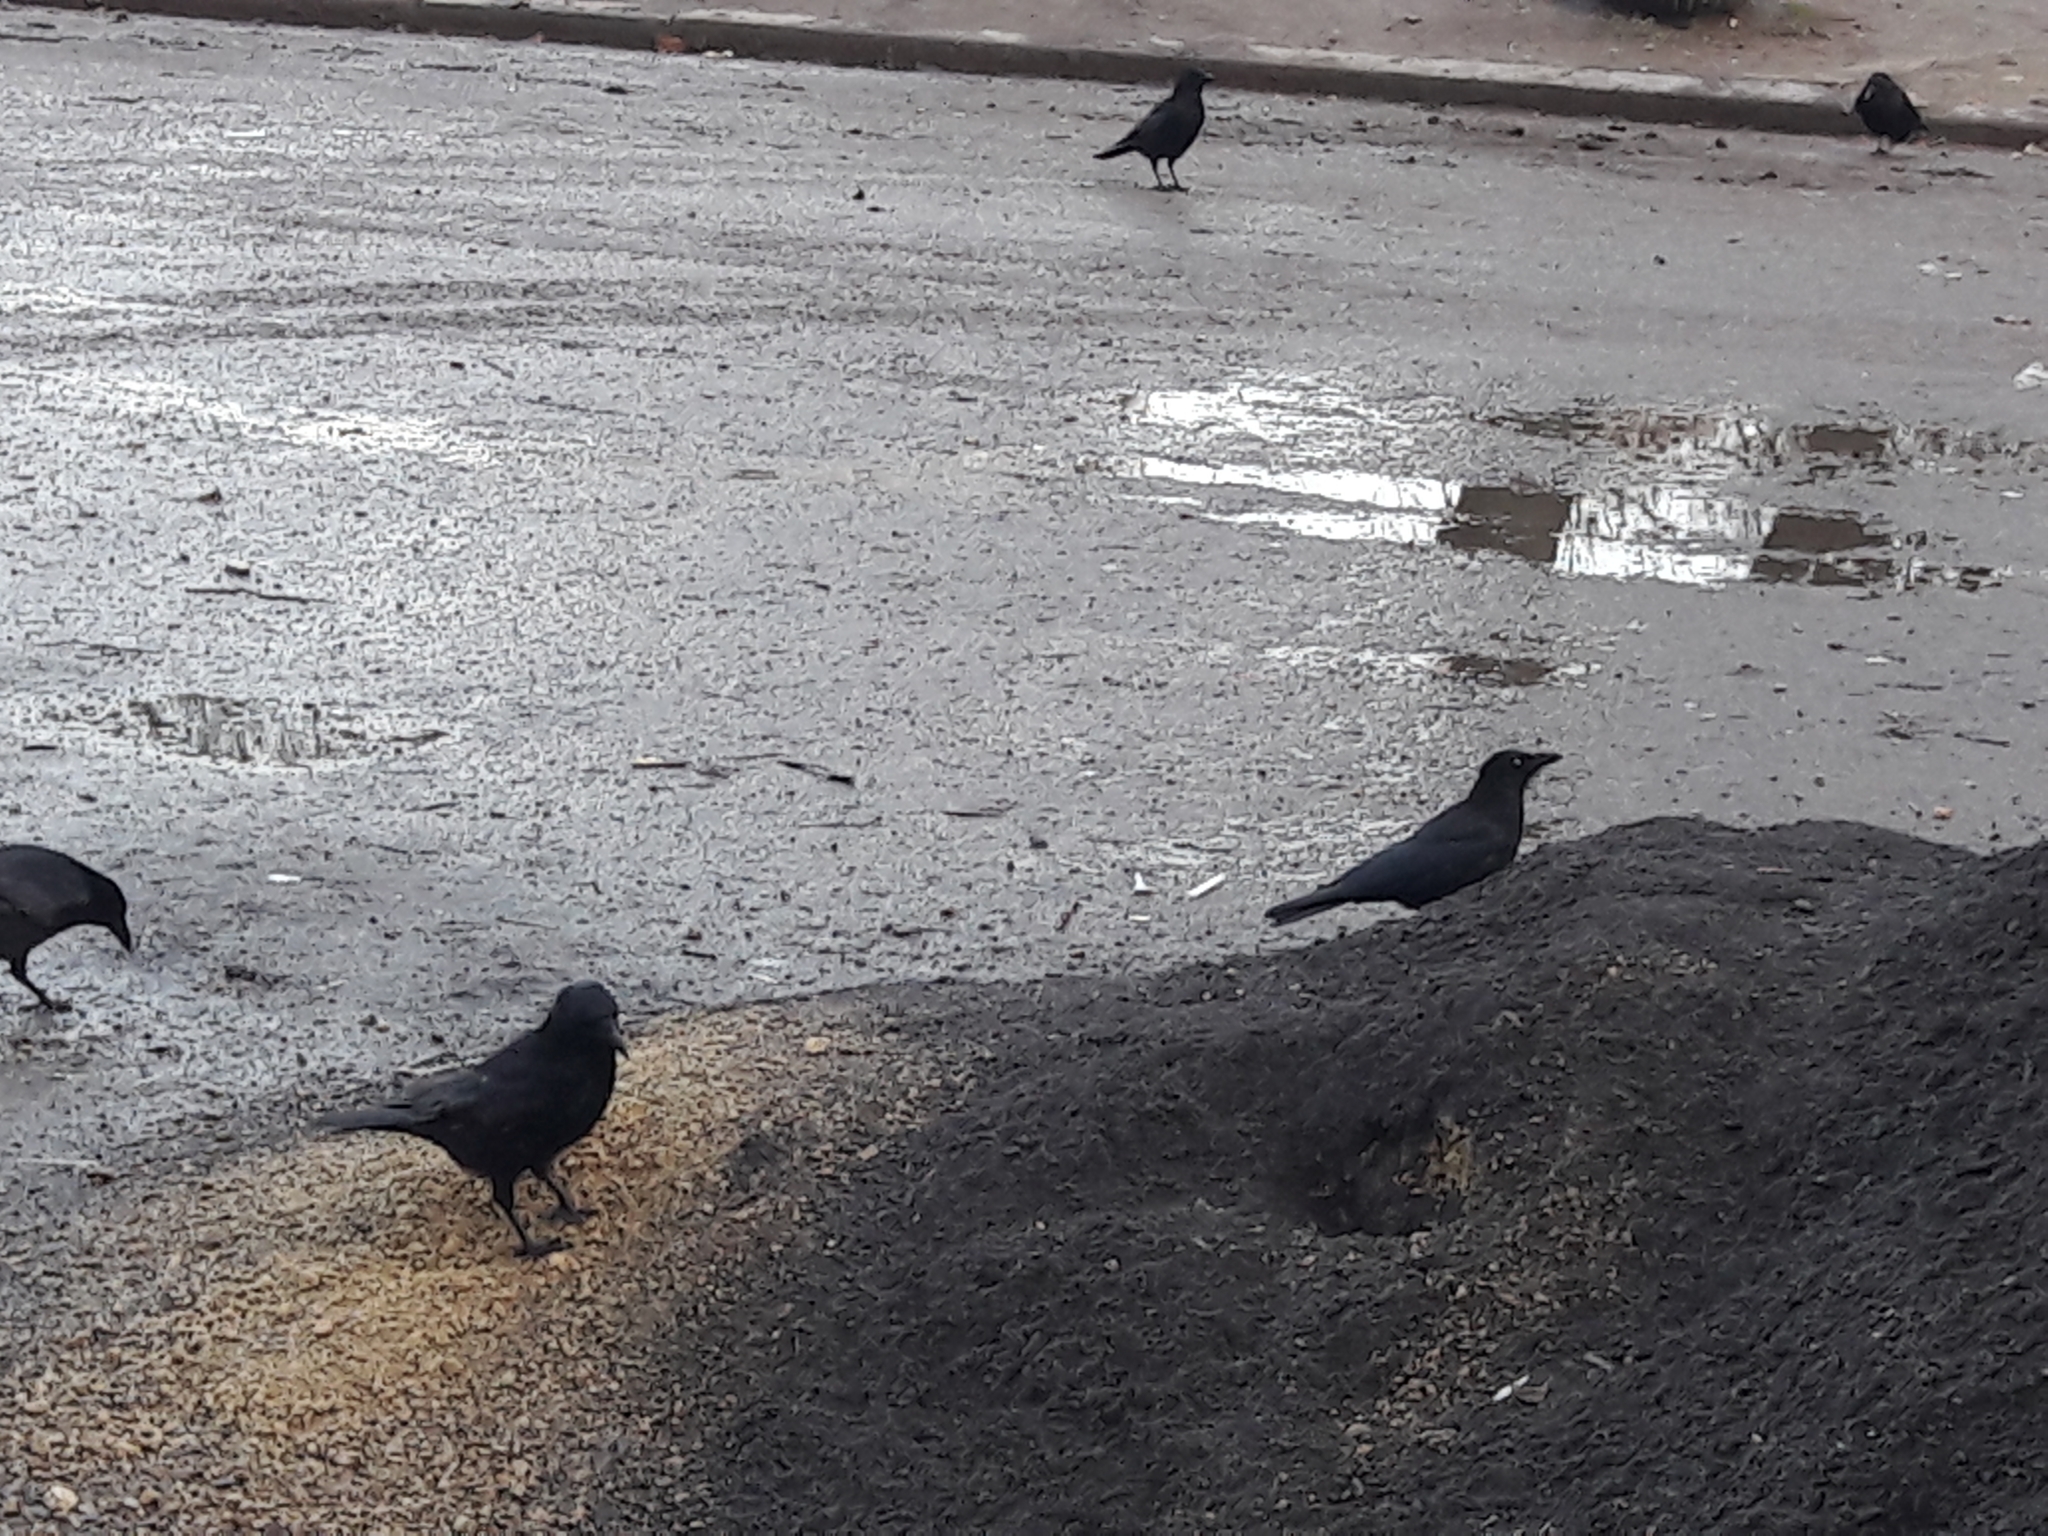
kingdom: Animalia
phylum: Chordata
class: Aves
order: Passeriformes
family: Corvidae
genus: Corvus
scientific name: Corvus corone
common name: Carrion crow
